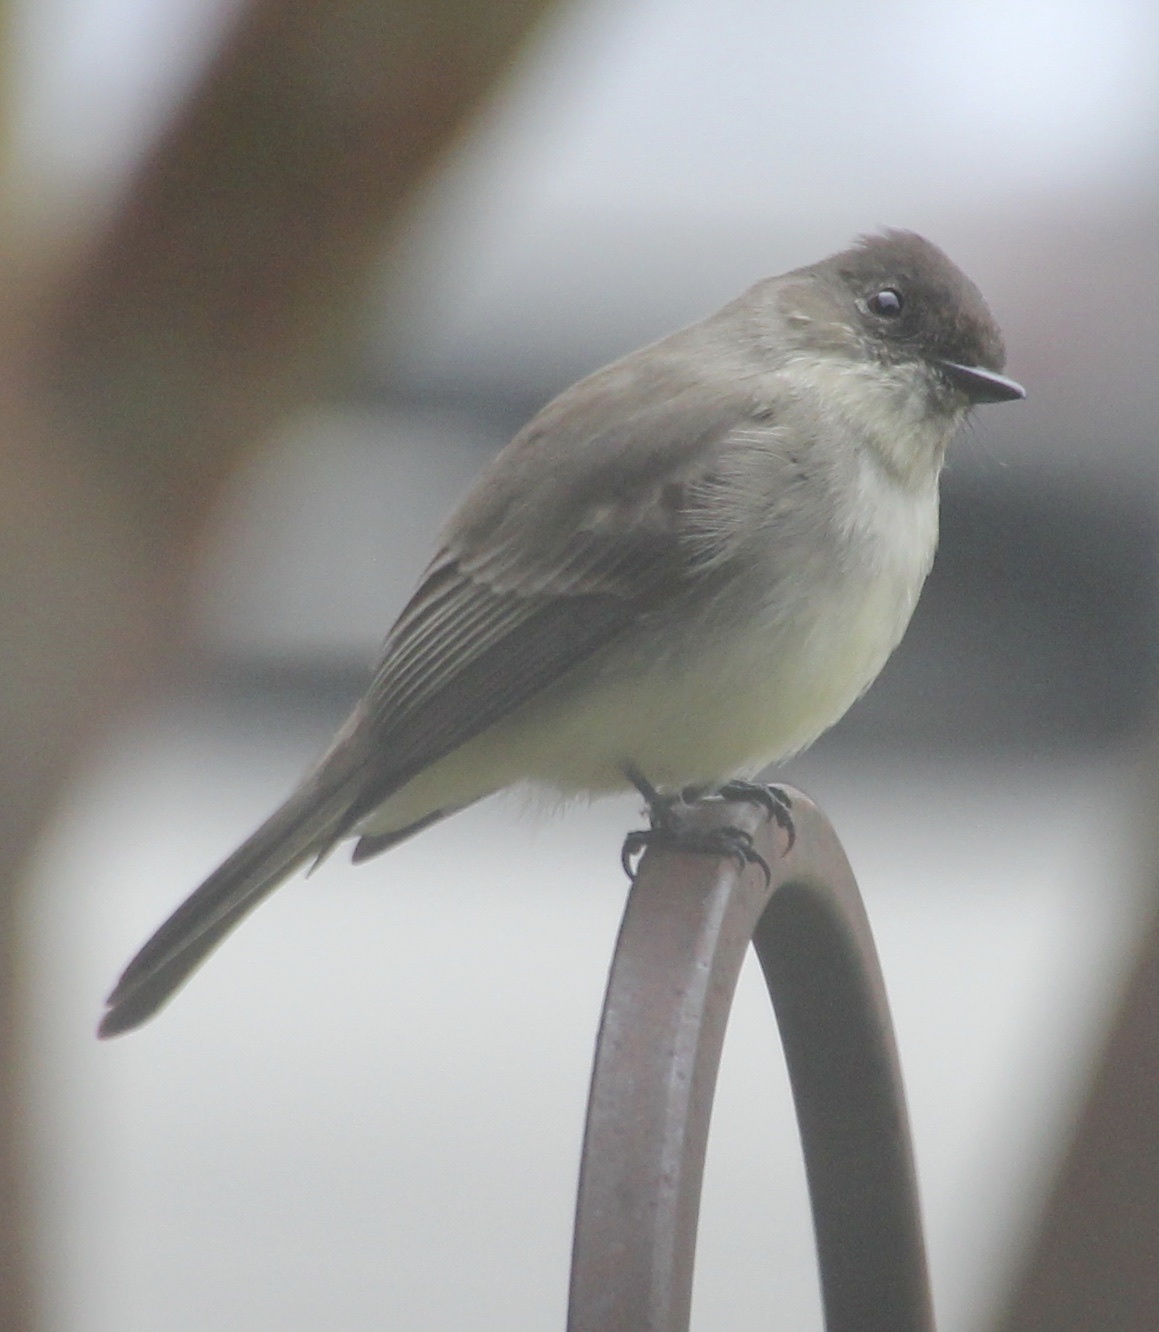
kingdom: Animalia
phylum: Chordata
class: Aves
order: Passeriformes
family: Tyrannidae
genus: Sayornis
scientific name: Sayornis phoebe
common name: Eastern phoebe
